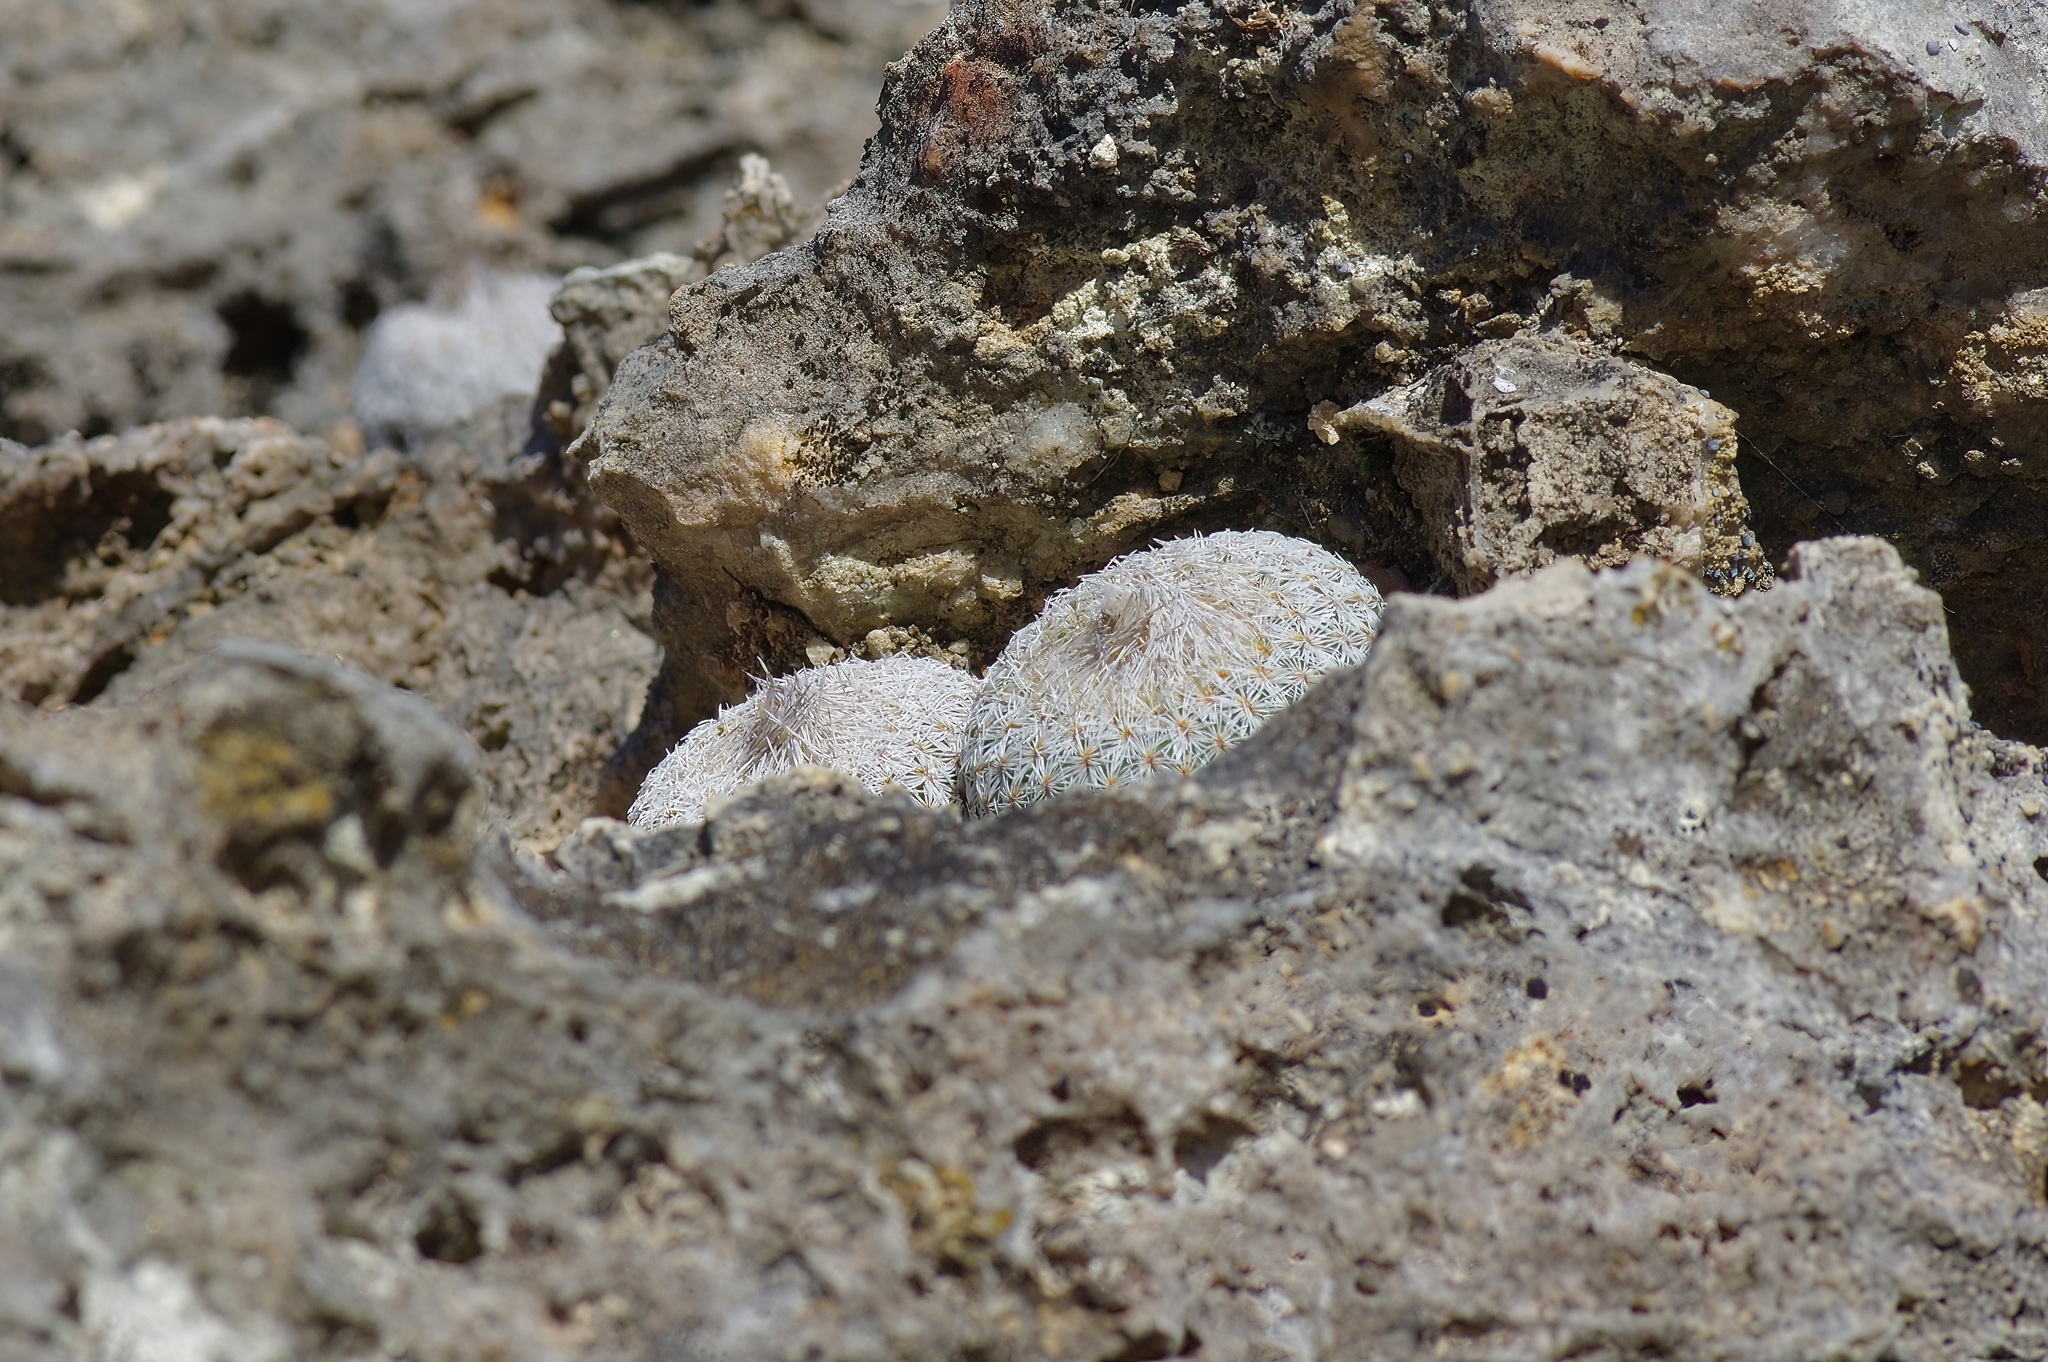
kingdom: Plantae
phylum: Tracheophyta
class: Magnoliopsida
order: Caryophyllales
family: Cactaceae
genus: Epithelantha
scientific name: Epithelantha micromeris
